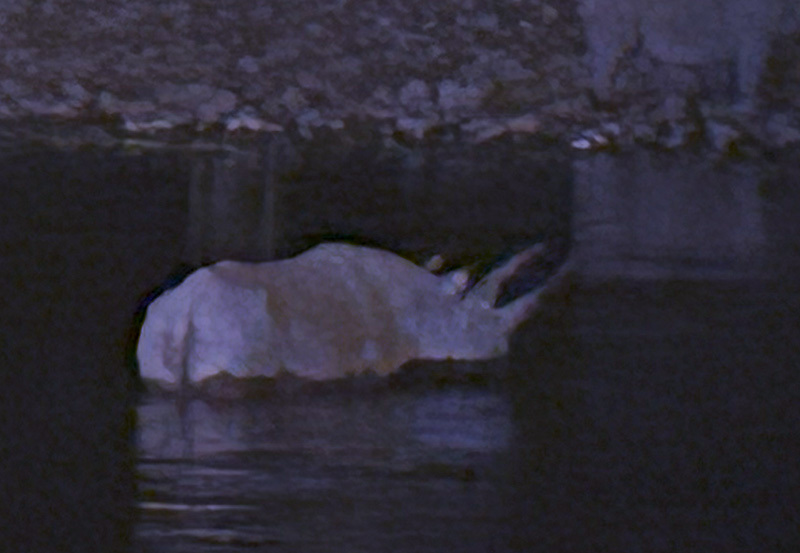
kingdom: Animalia
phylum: Chordata
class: Mammalia
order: Perissodactyla
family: Rhinocerotidae
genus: Diceros
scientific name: Diceros bicornis
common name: Black rhinoceros
